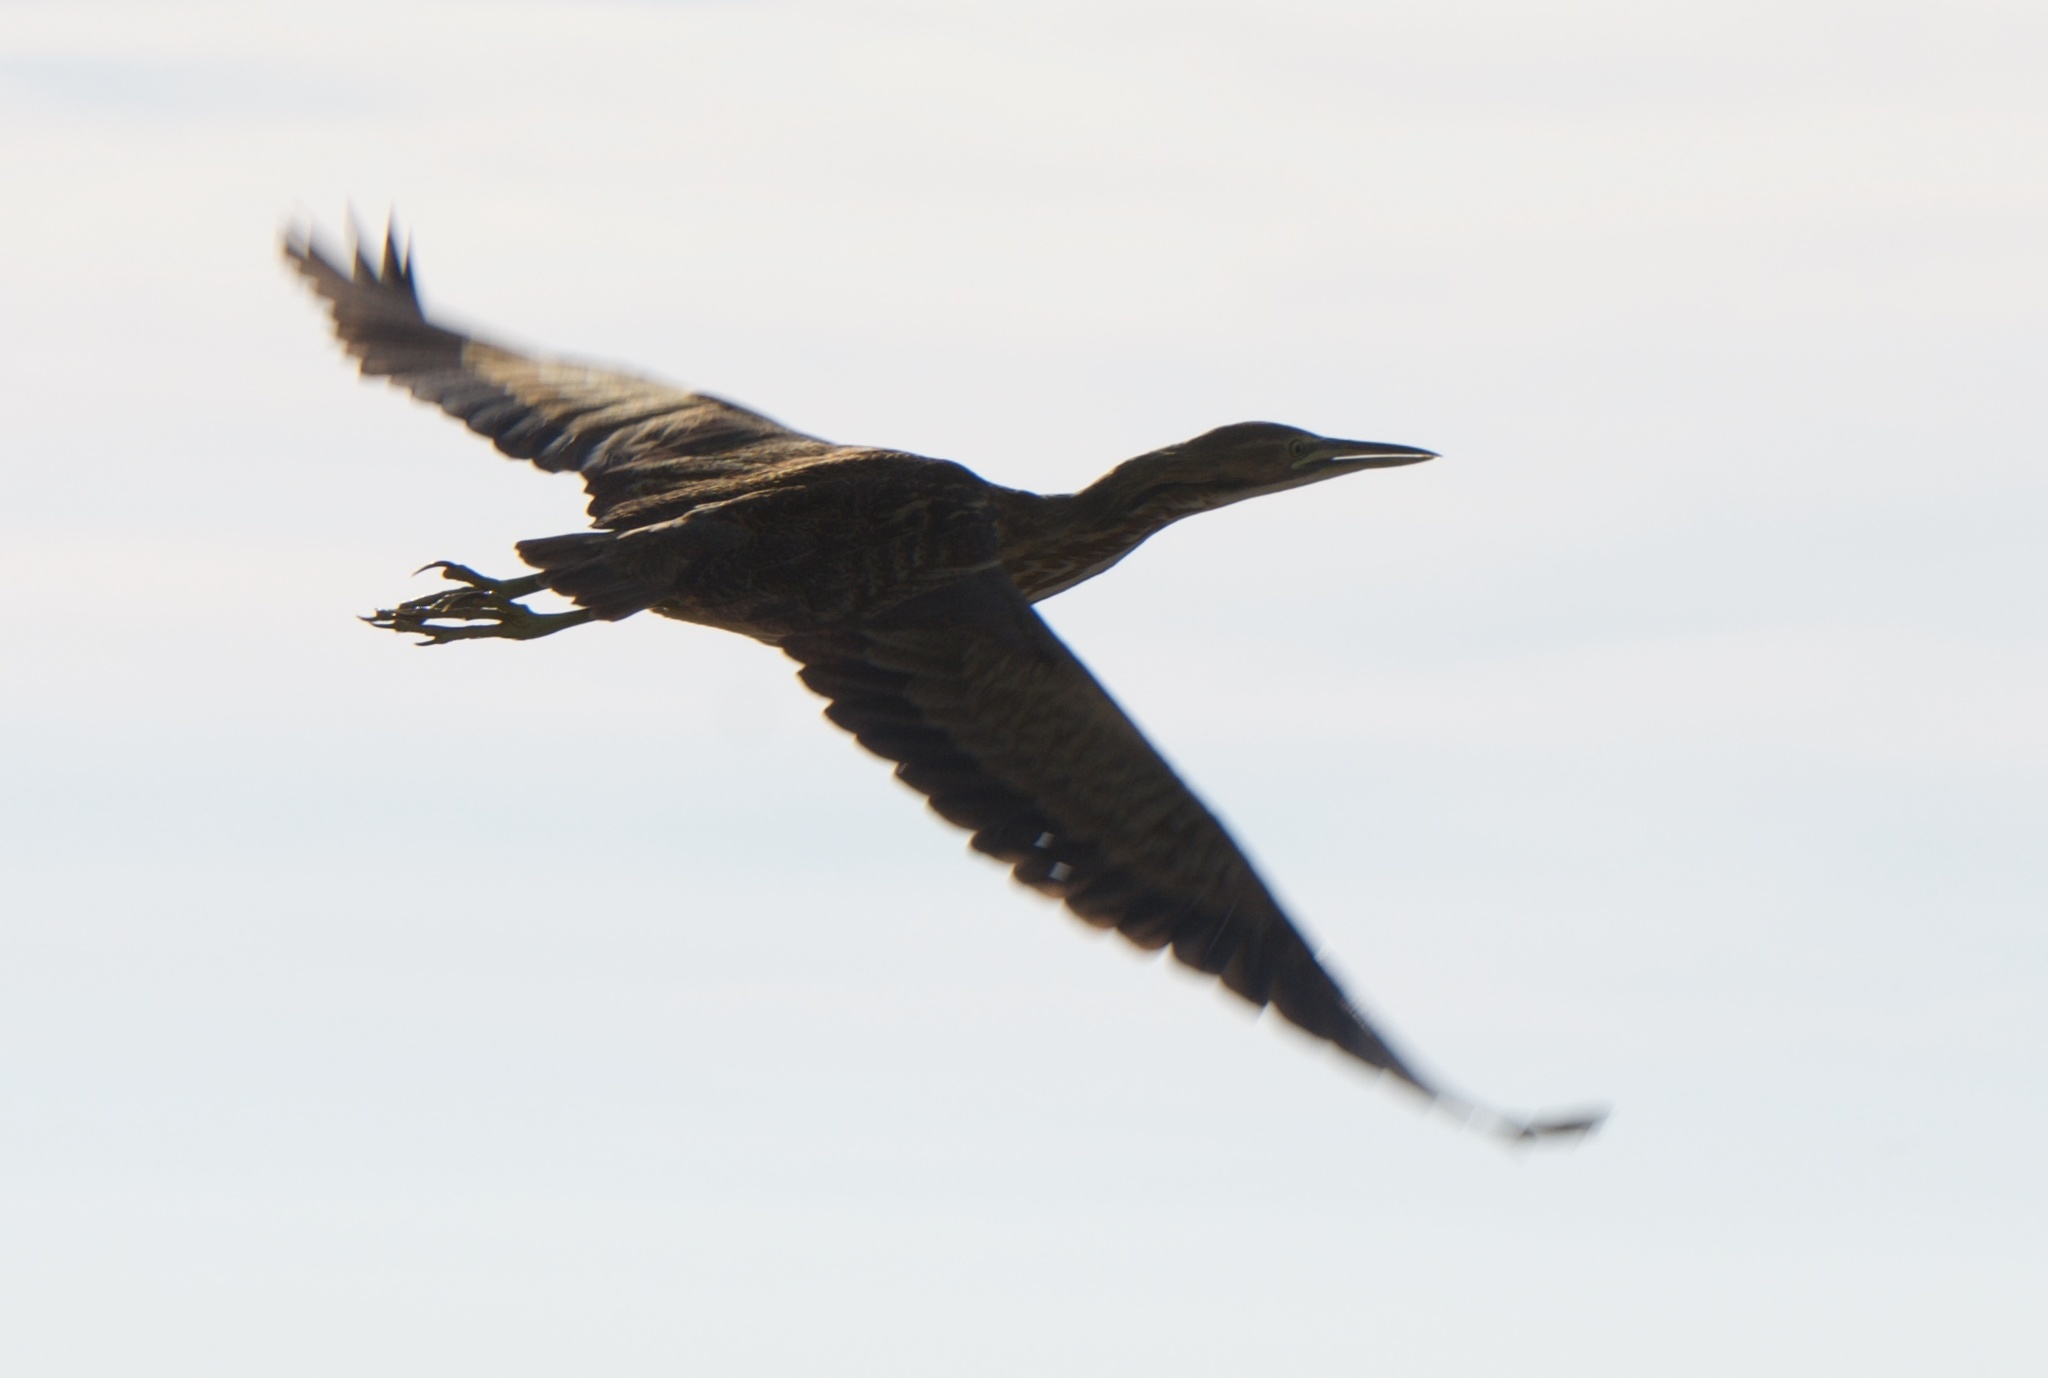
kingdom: Animalia
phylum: Chordata
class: Aves
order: Pelecaniformes
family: Ardeidae
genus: Botaurus
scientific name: Botaurus lentiginosus
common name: American bittern
